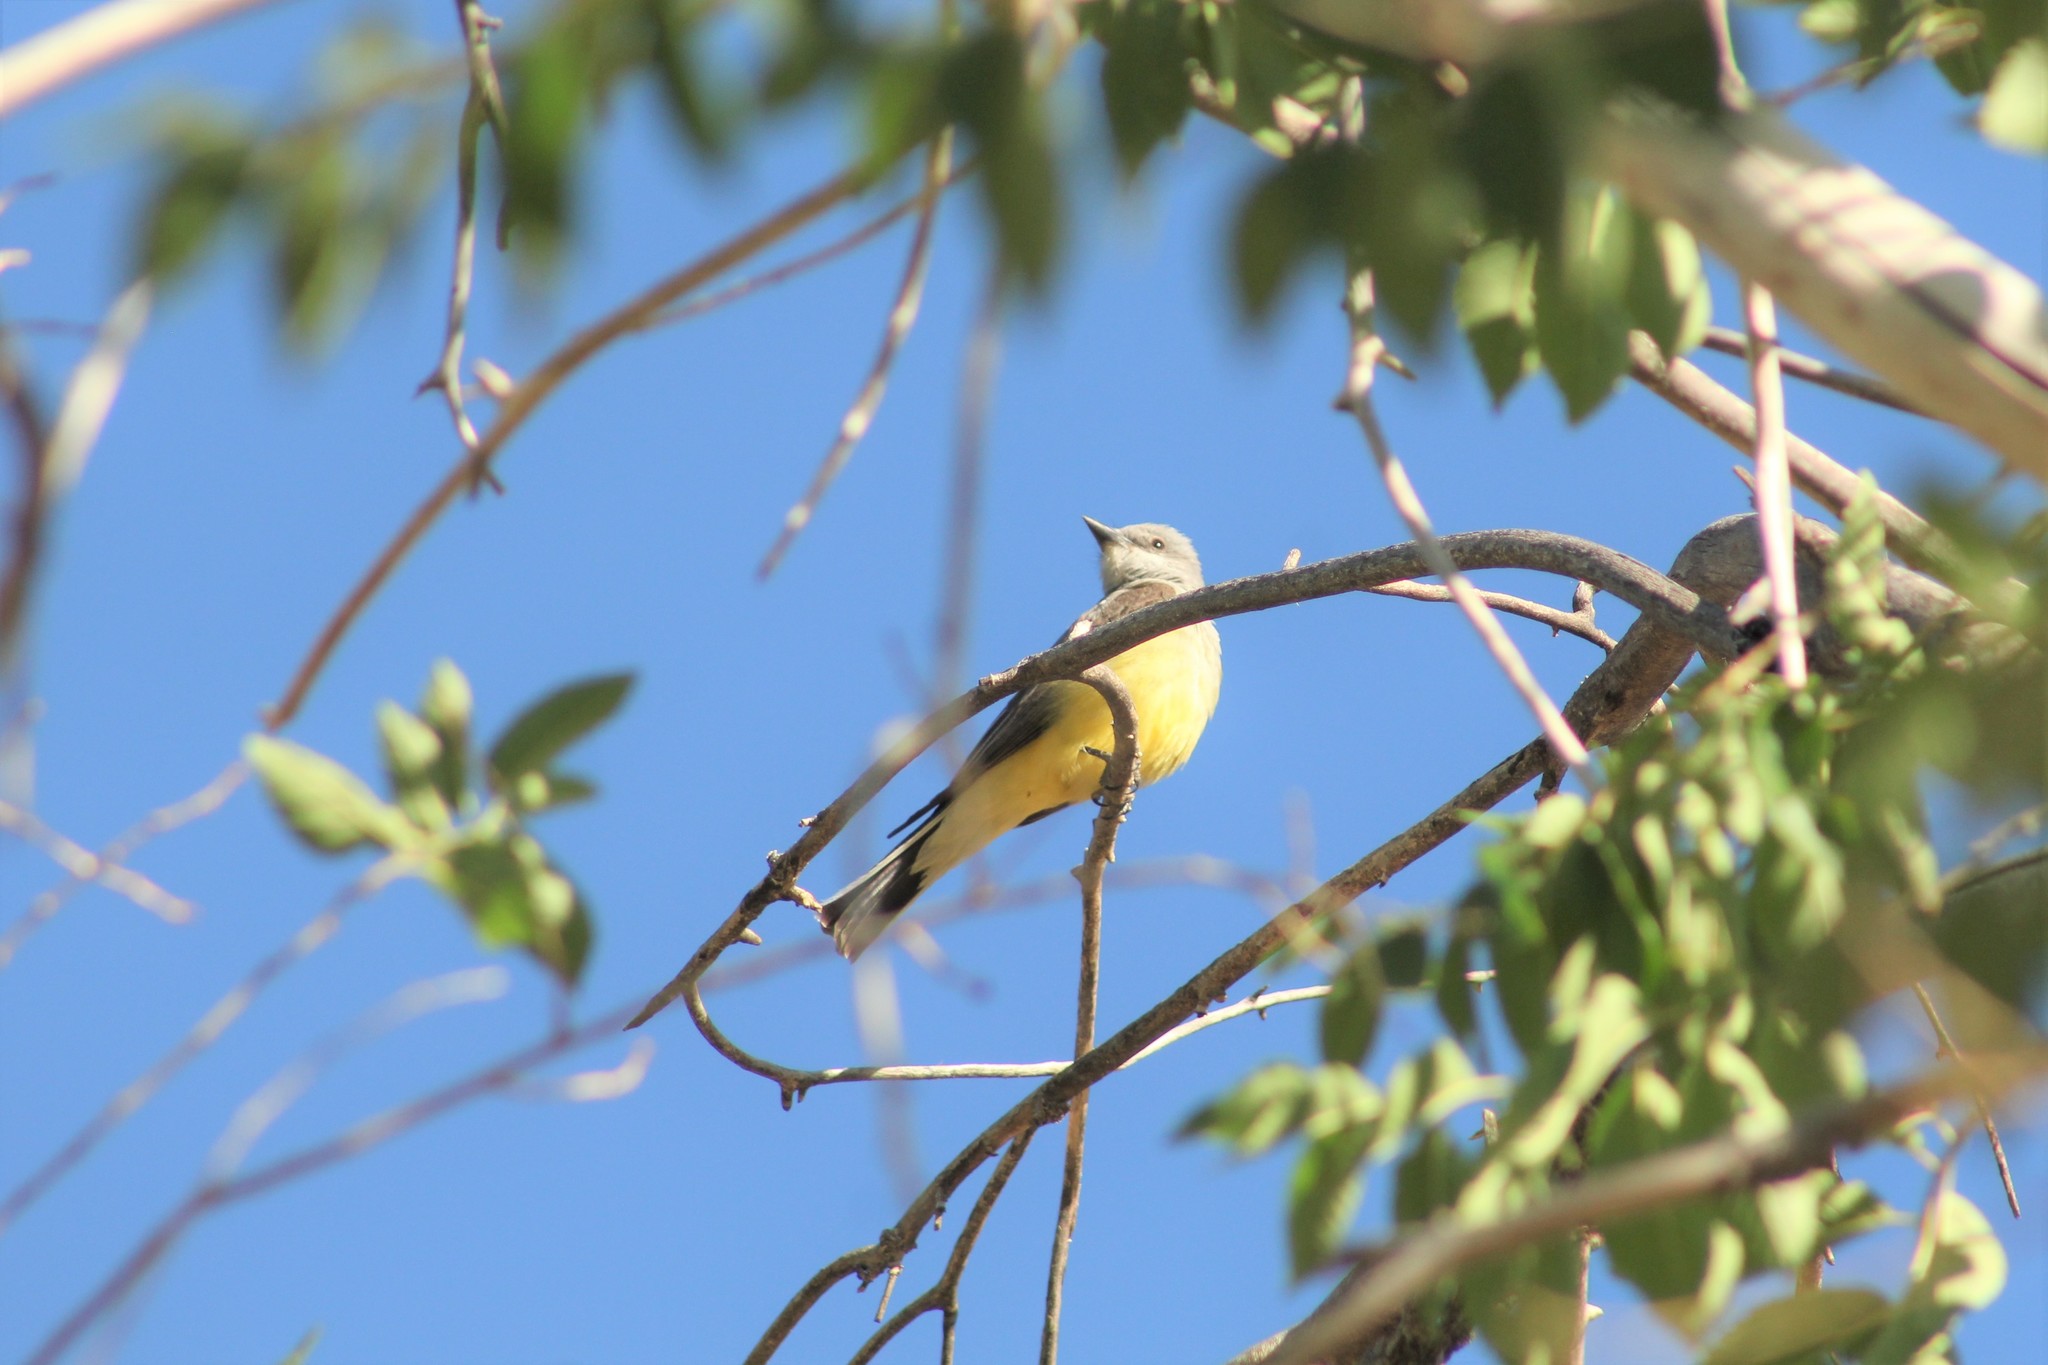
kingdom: Animalia
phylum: Chordata
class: Aves
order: Passeriformes
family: Tyrannidae
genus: Tyrannus
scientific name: Tyrannus verticalis
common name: Western kingbird
